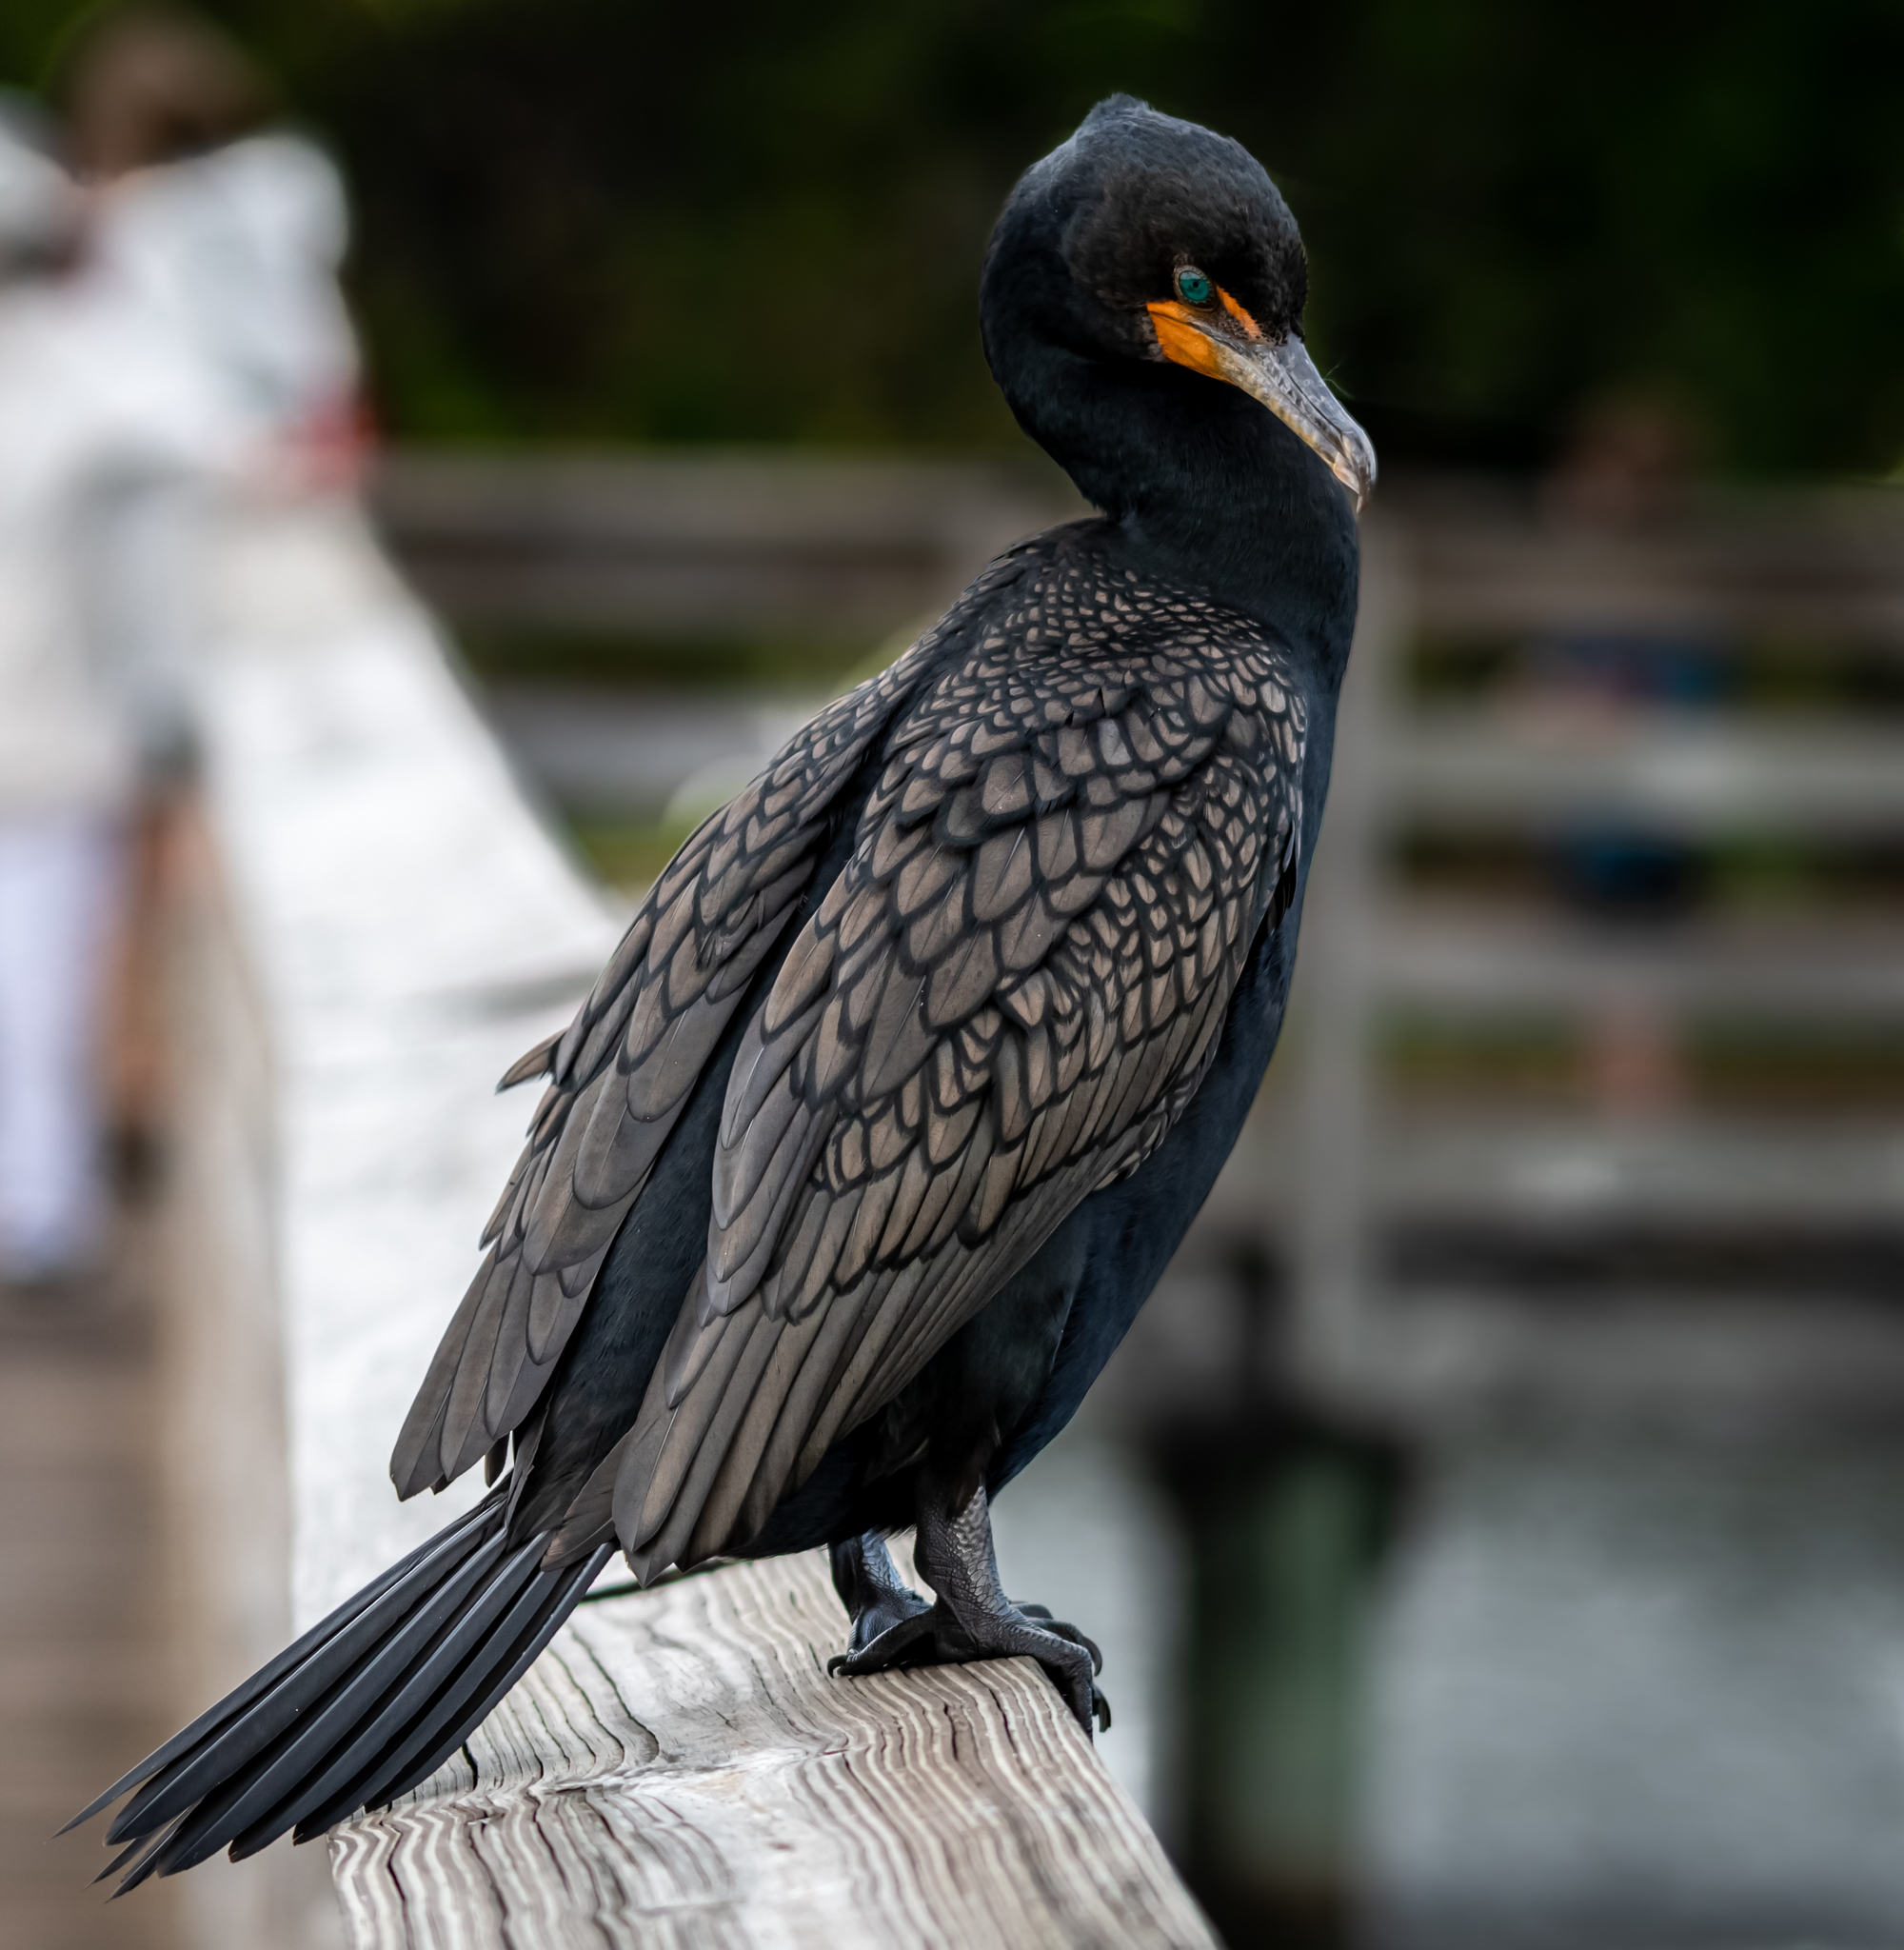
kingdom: Animalia
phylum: Chordata
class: Aves
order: Suliformes
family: Phalacrocoracidae
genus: Phalacrocorax
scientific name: Phalacrocorax auritus
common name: Double-crested cormorant
